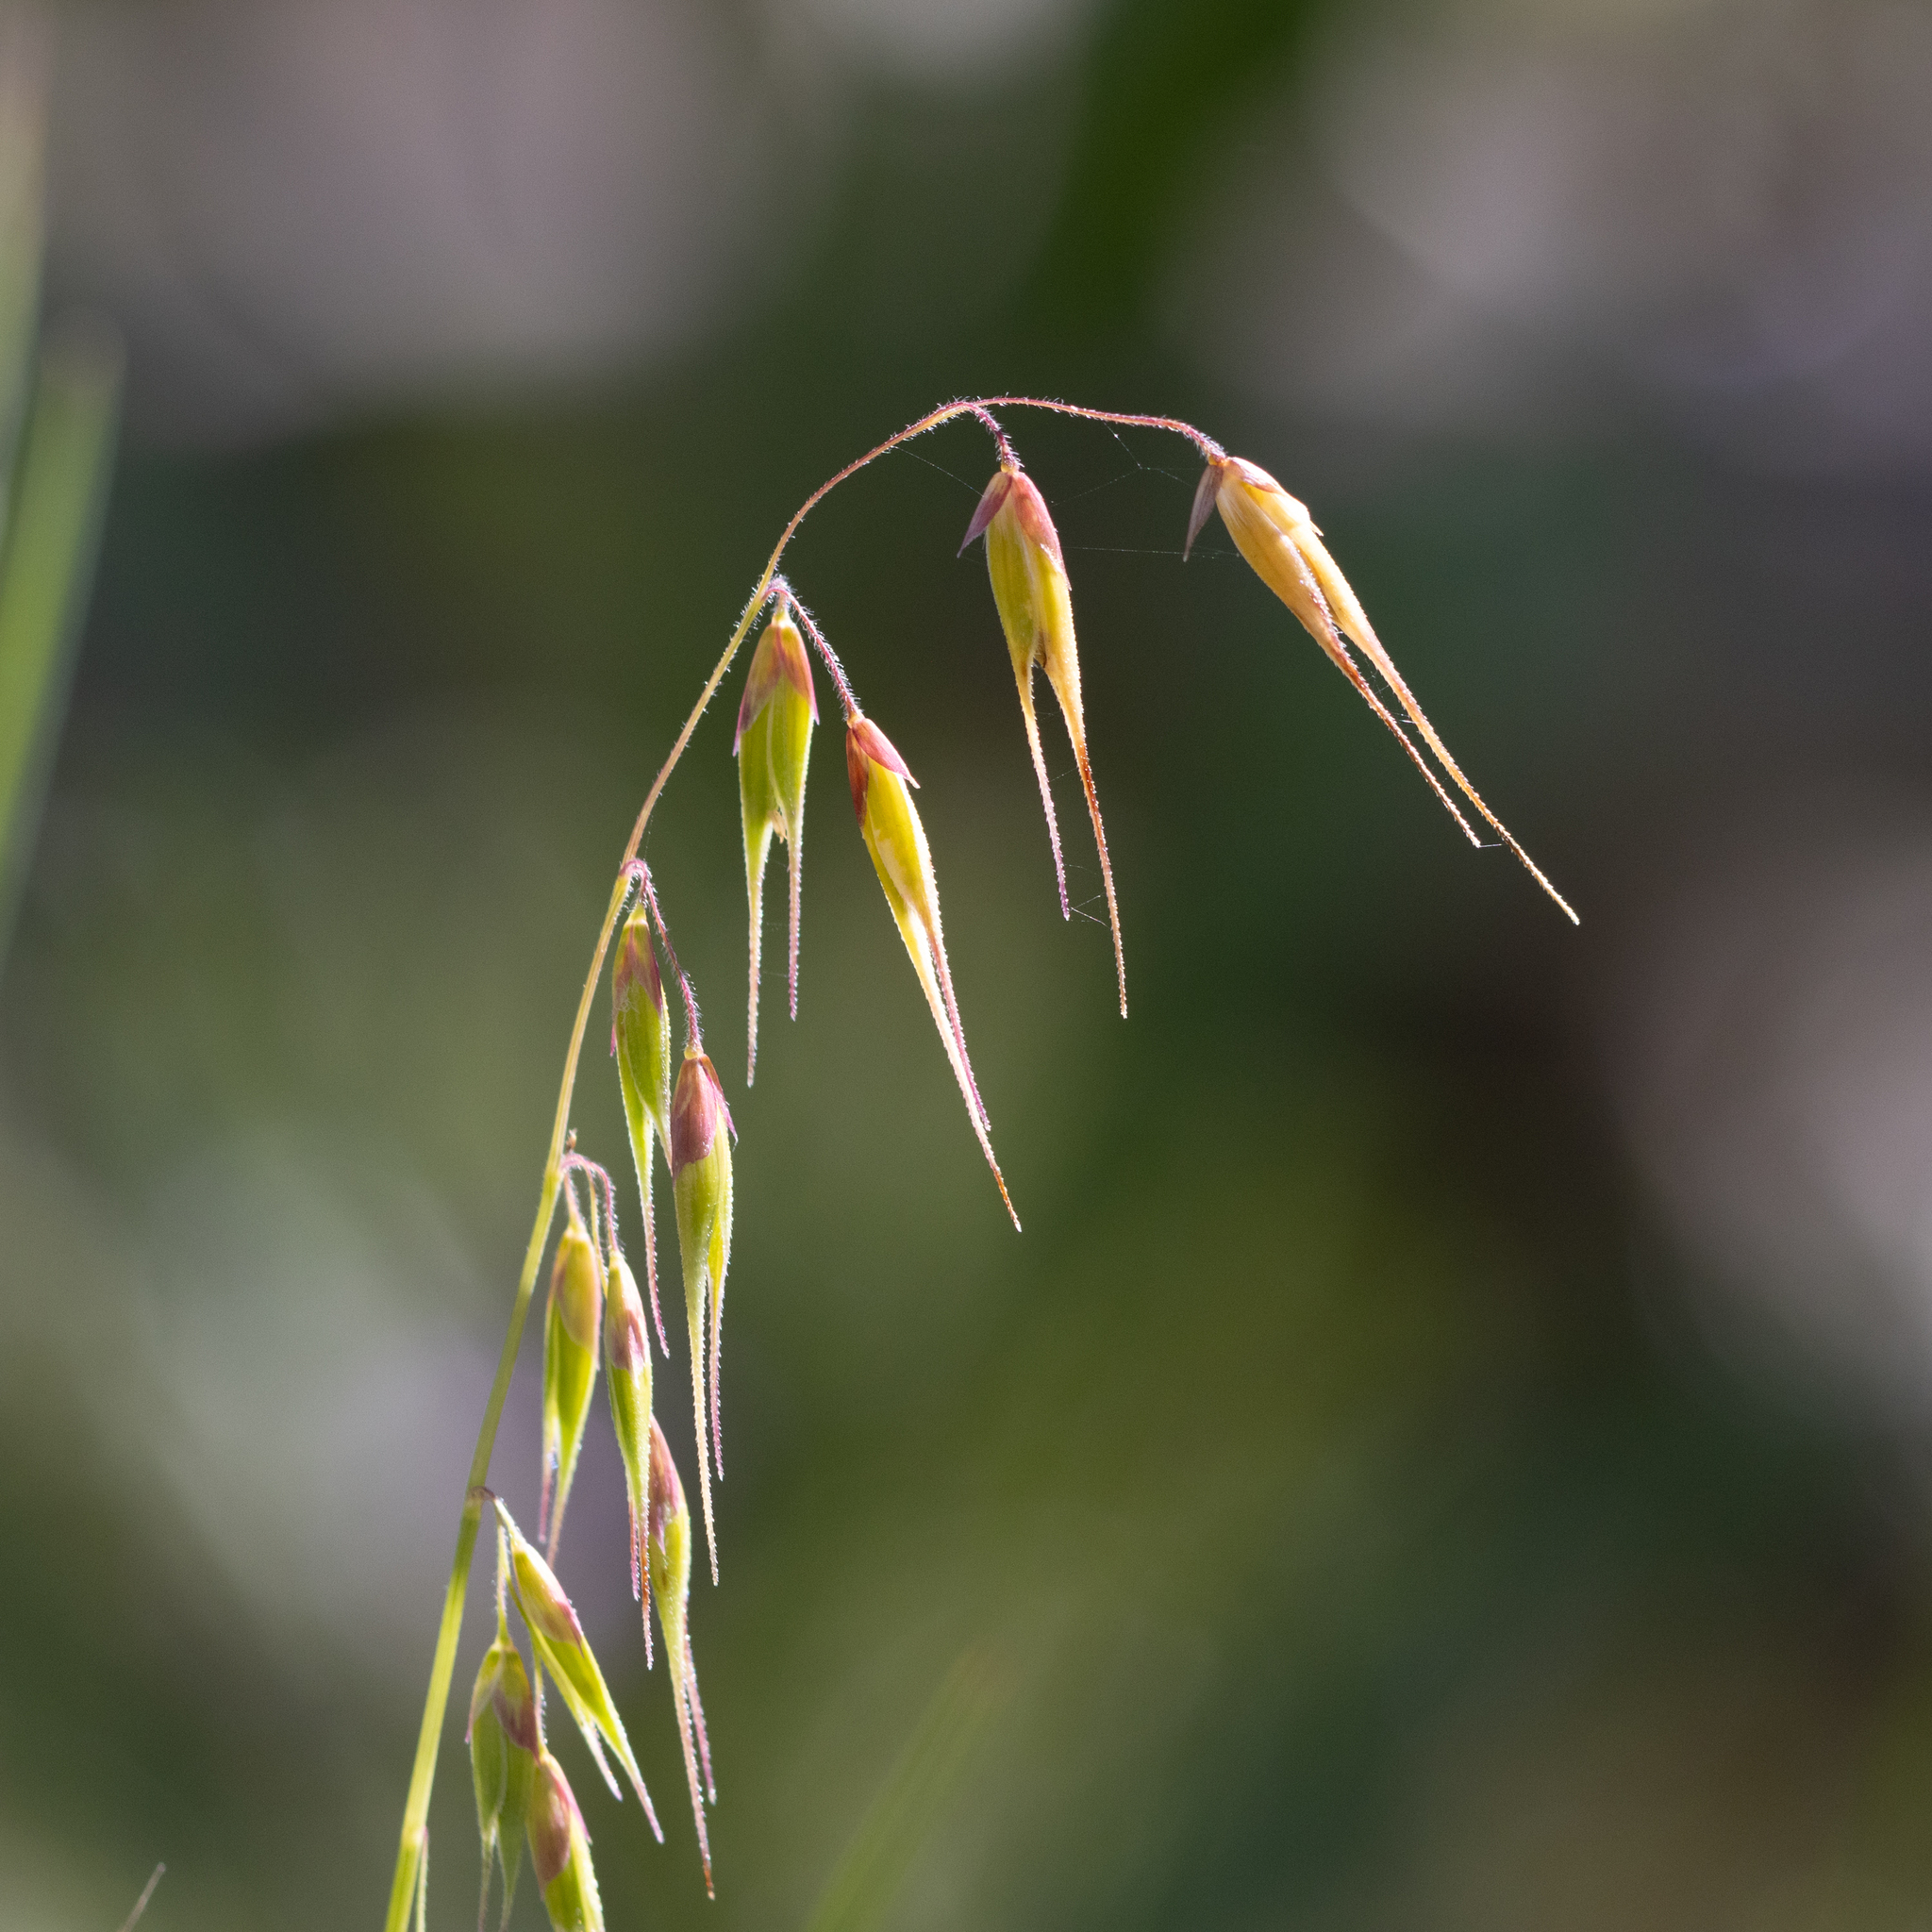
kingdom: Plantae
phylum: Tracheophyta
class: Liliopsida
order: Poales
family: Poaceae
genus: Ehrharta
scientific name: Ehrharta longiflora
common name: Longflowered veldtgrass
